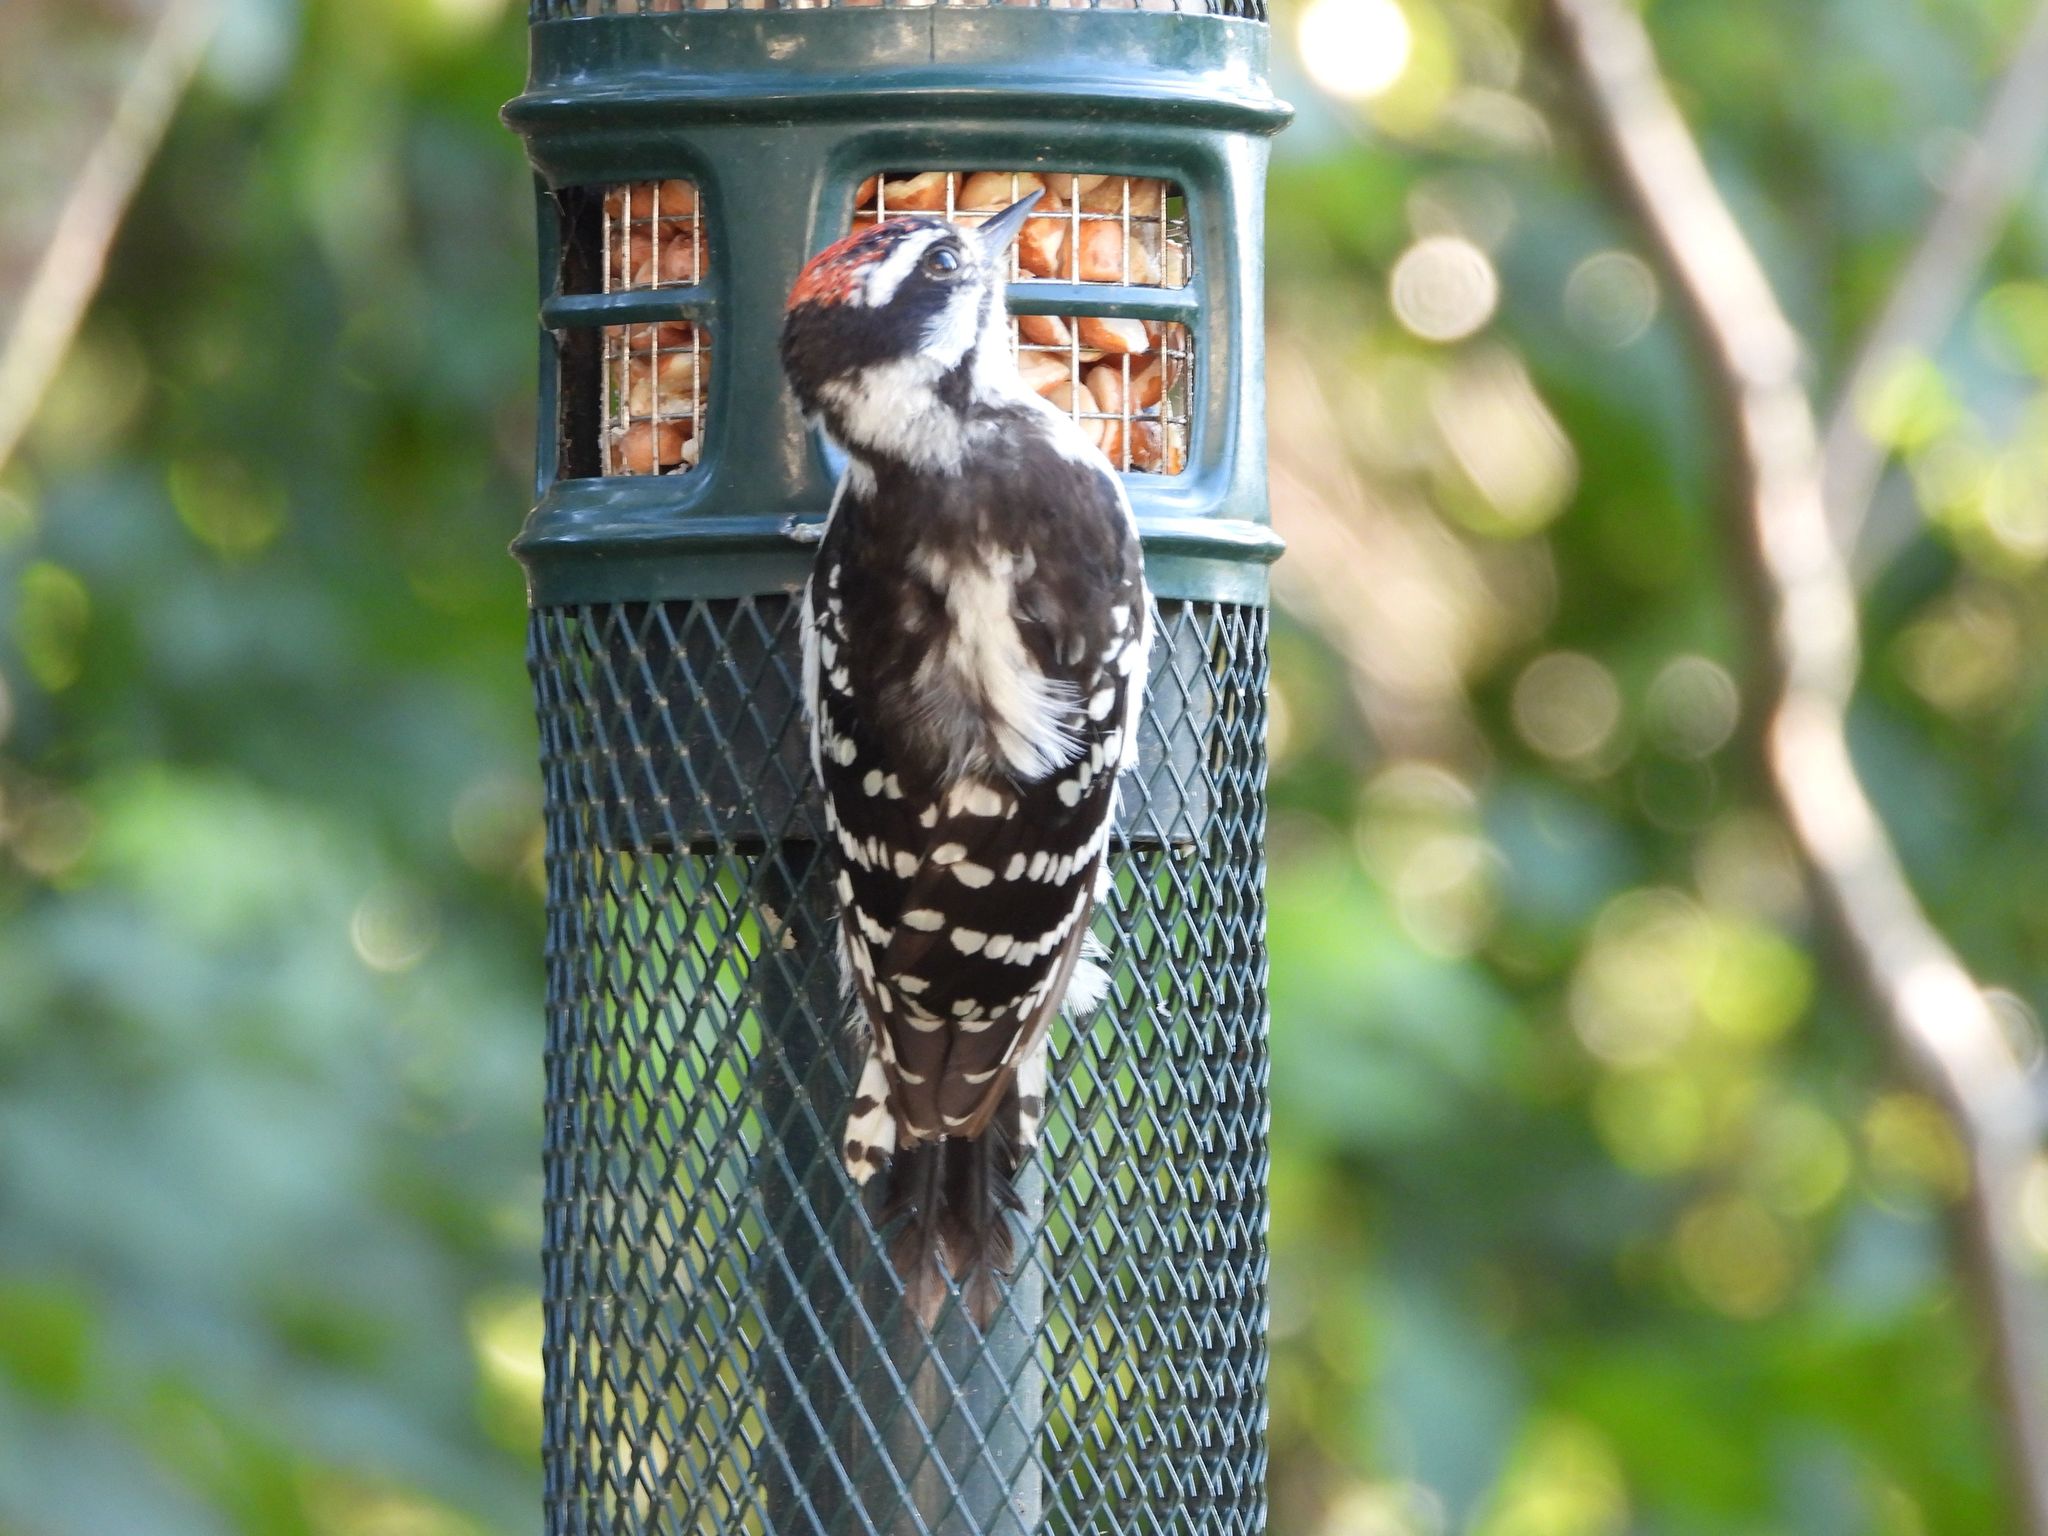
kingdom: Animalia
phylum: Chordata
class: Aves
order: Piciformes
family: Picidae
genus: Dryobates
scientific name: Dryobates pubescens
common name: Downy woodpecker
